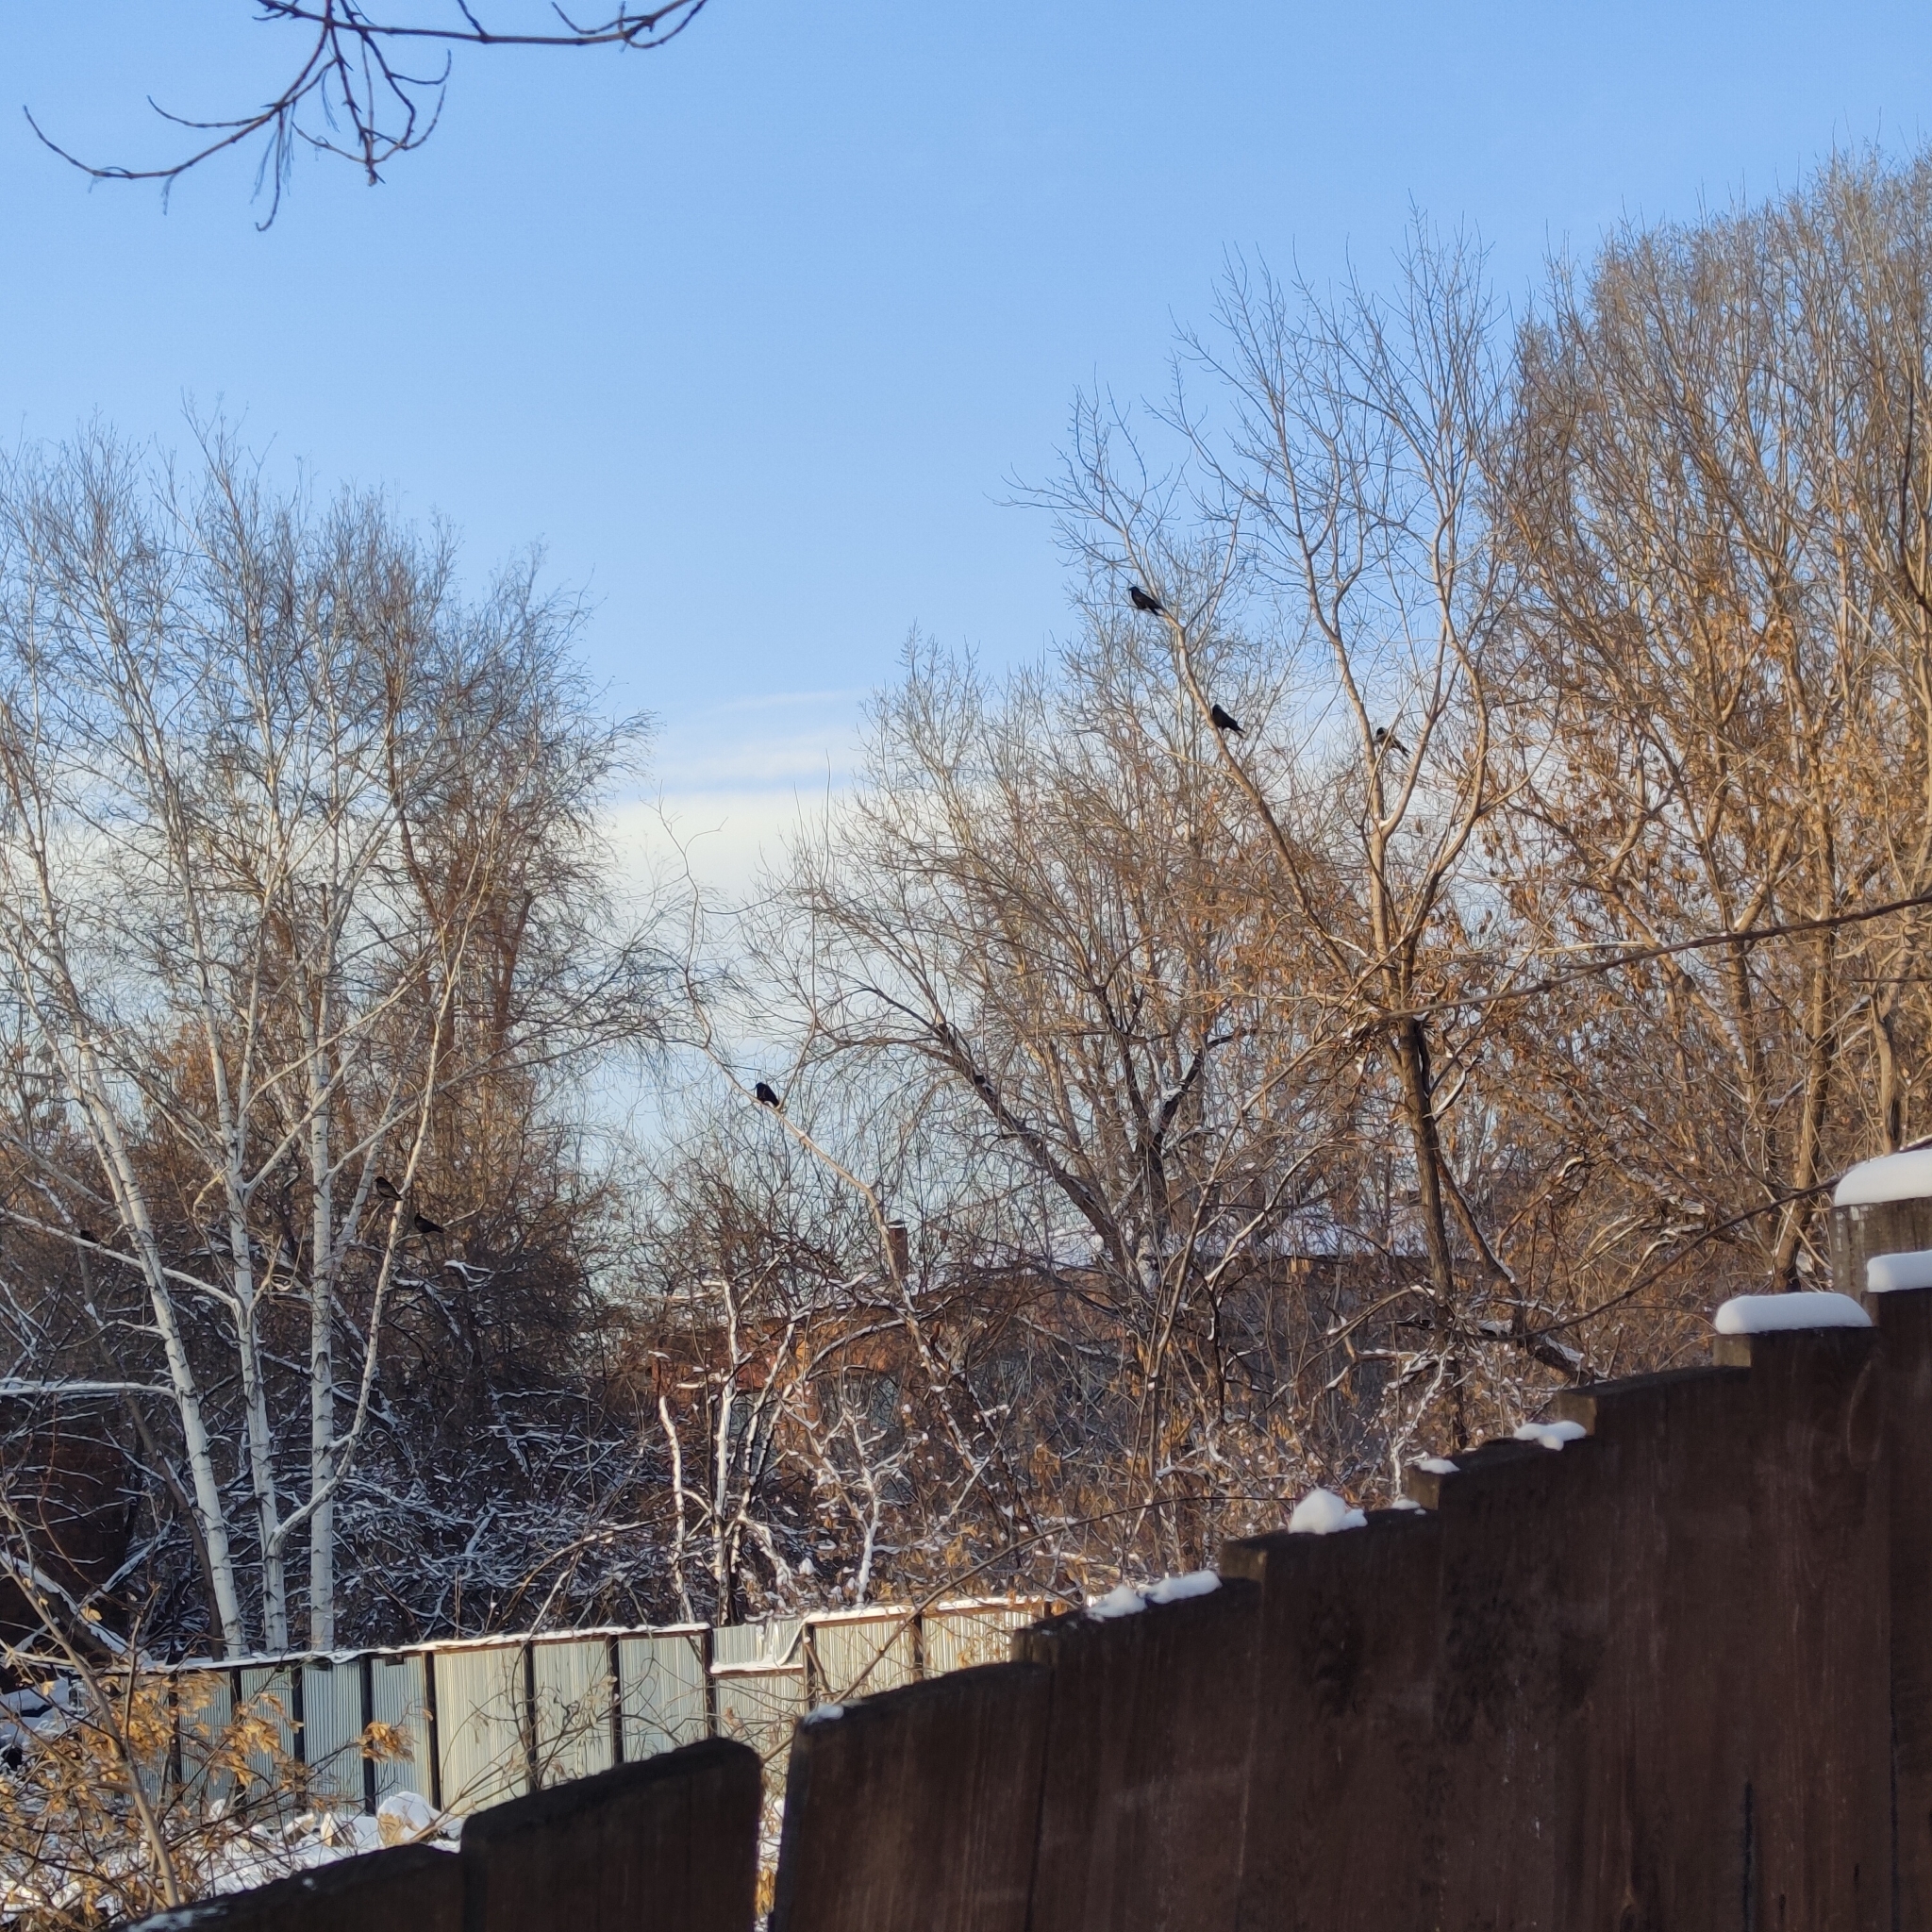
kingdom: Animalia
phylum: Chordata
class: Aves
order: Passeriformes
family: Corvidae
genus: Corvus
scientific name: Corvus corone
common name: Carrion crow
